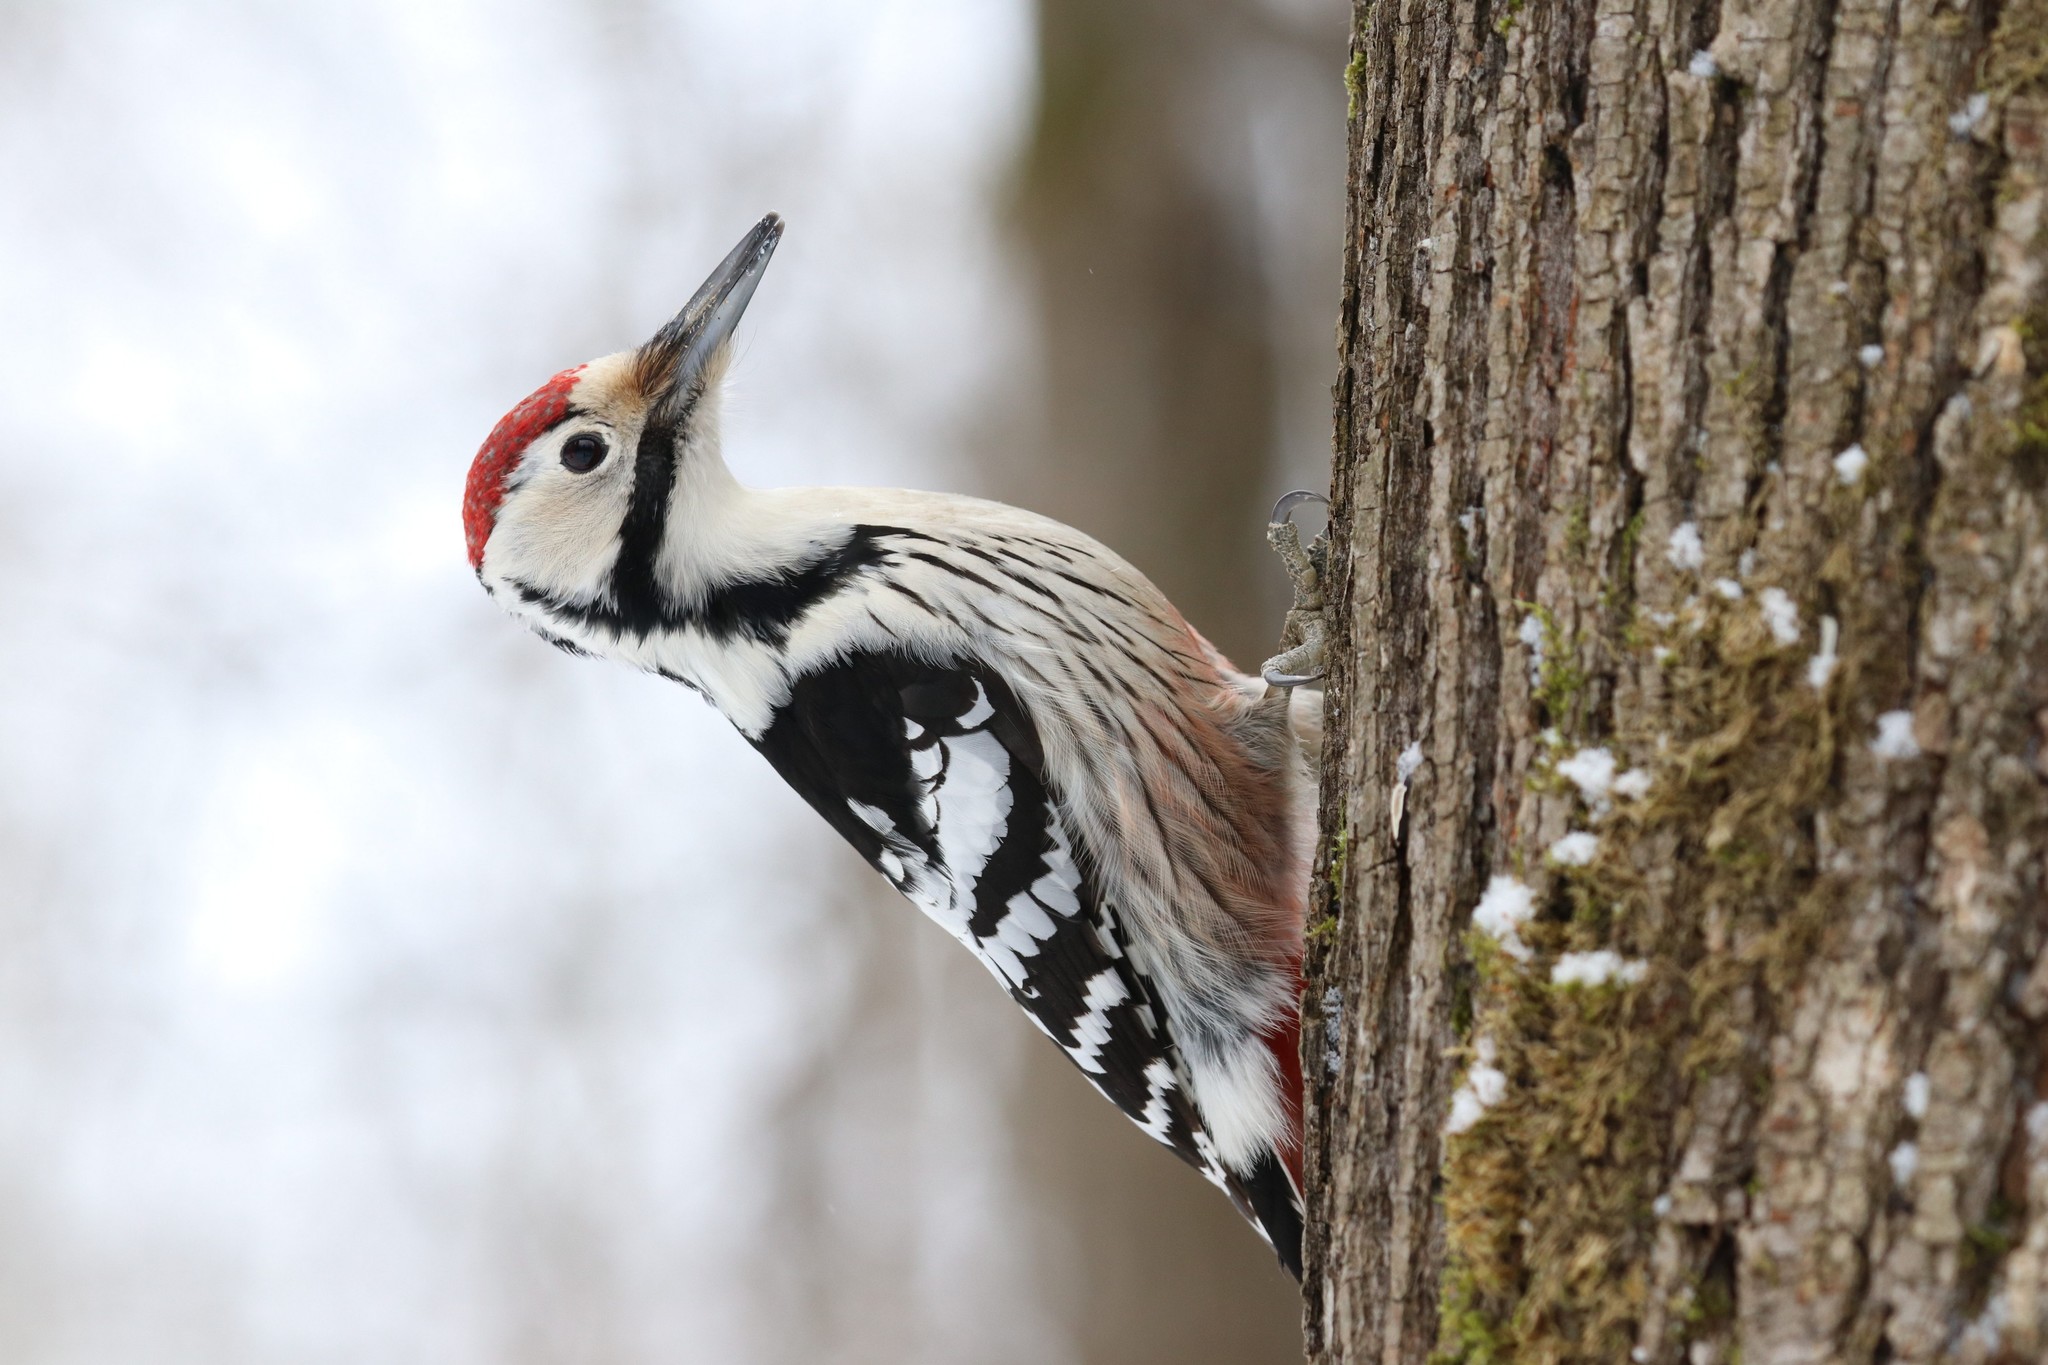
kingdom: Animalia
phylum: Chordata
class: Aves
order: Piciformes
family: Picidae
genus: Dendrocopos
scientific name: Dendrocopos leucotos
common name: White-backed woodpecker
